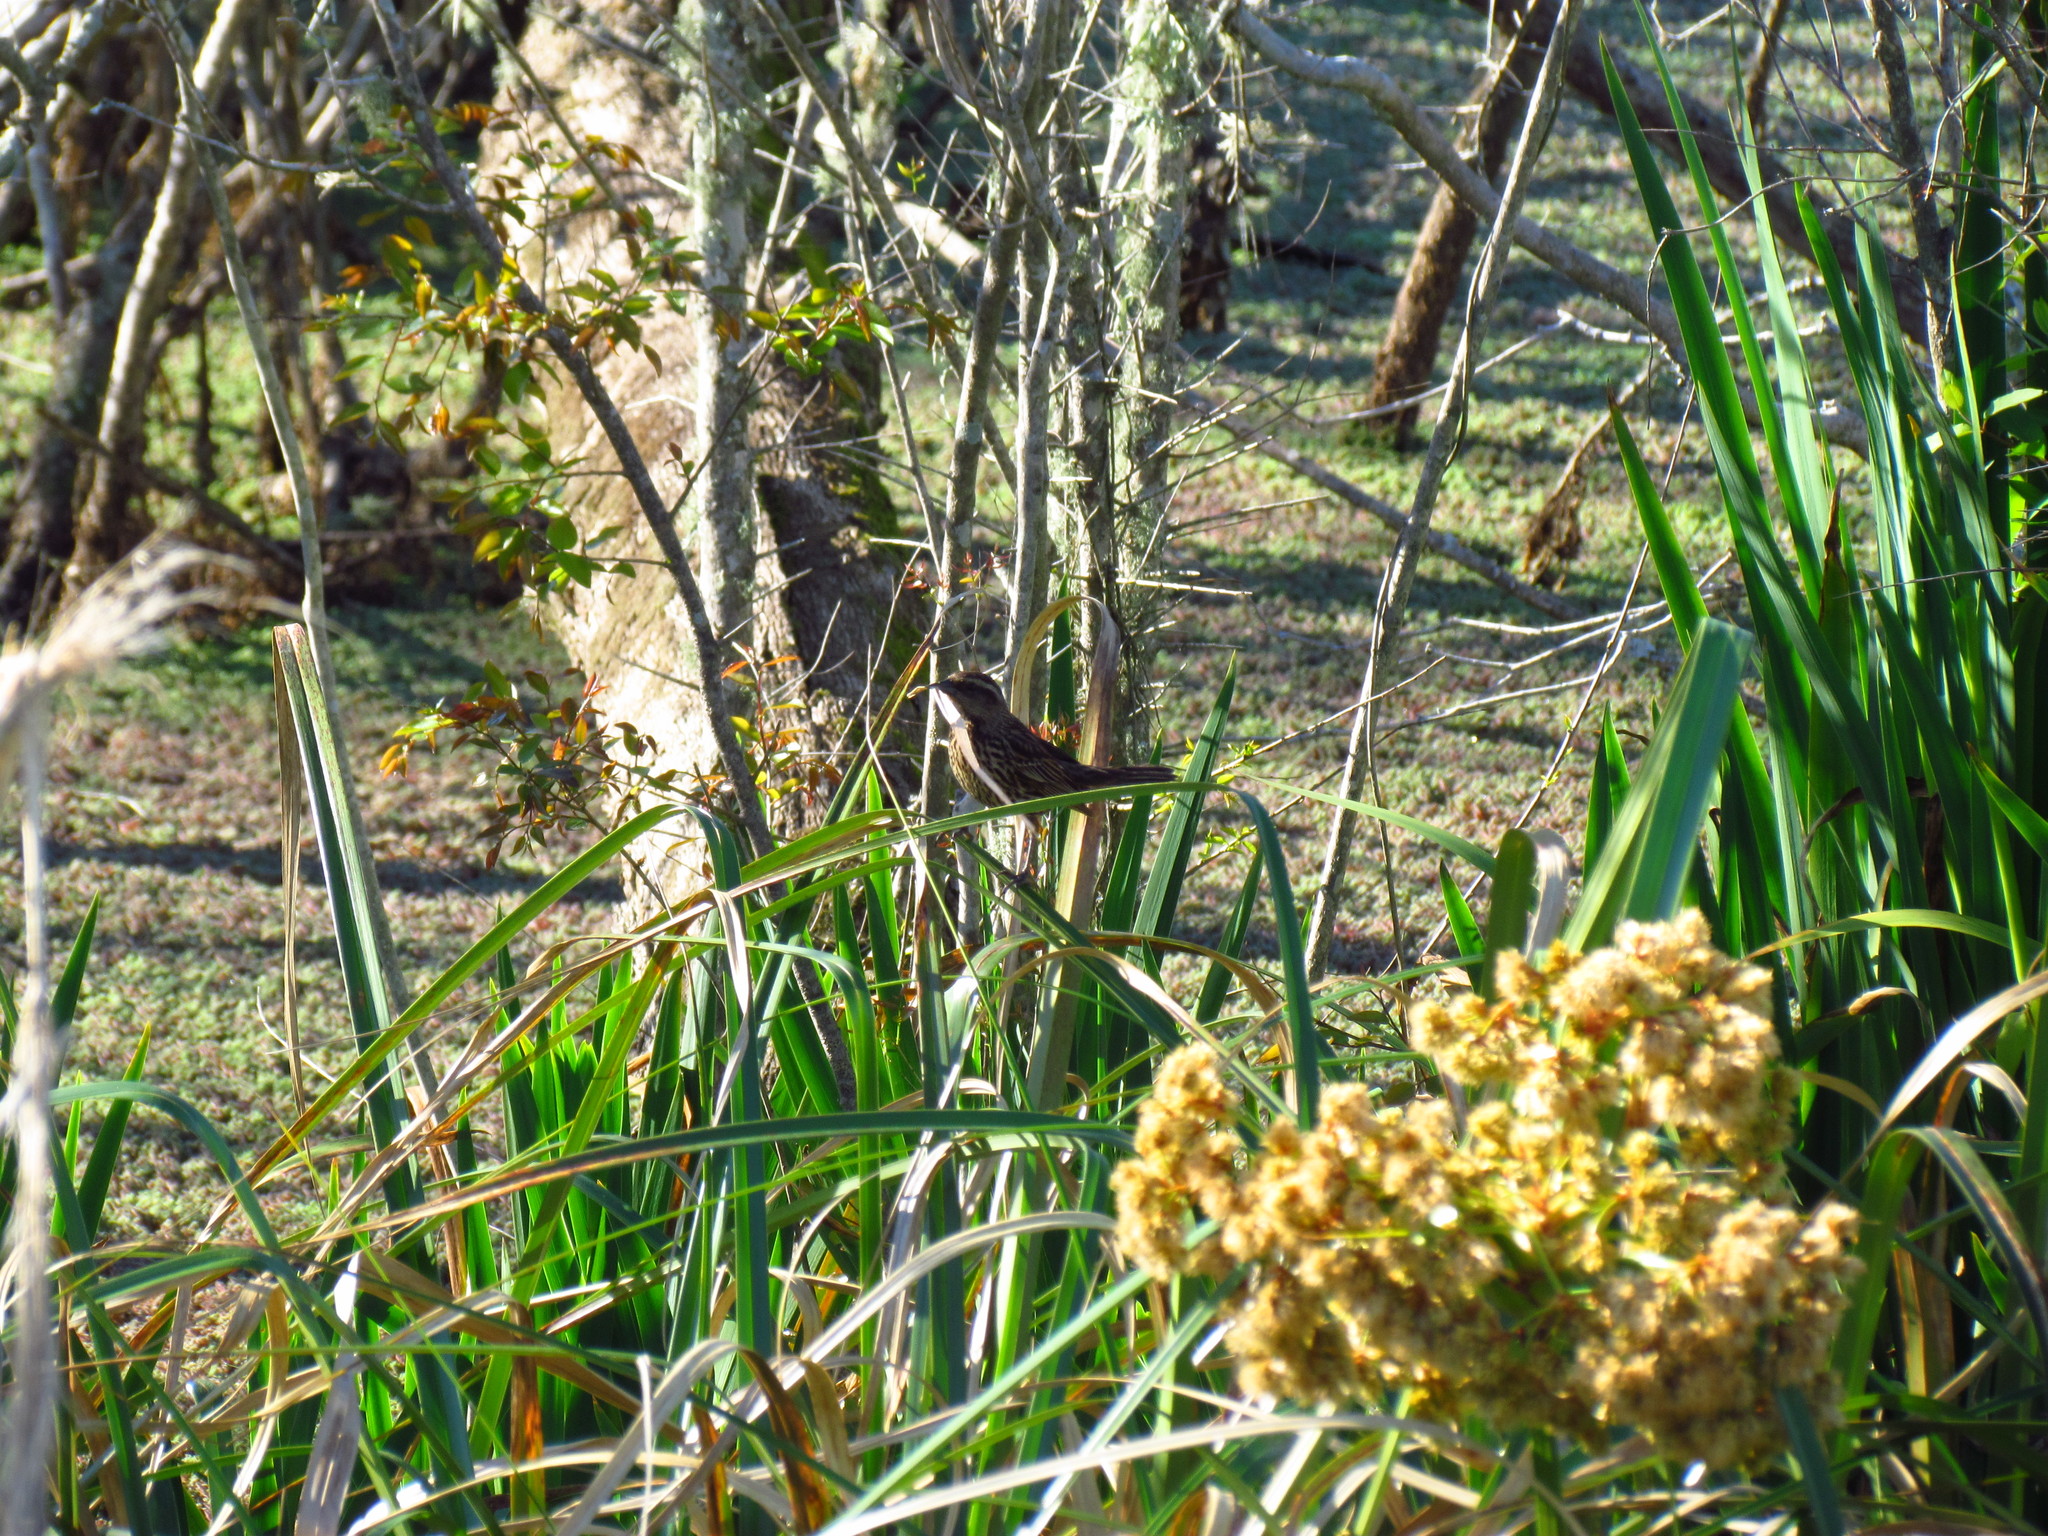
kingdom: Animalia
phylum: Chordata
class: Aves
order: Passeriformes
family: Icteridae
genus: Agelasticus
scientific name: Agelasticus thilius
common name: Yellow-winged blackbird
